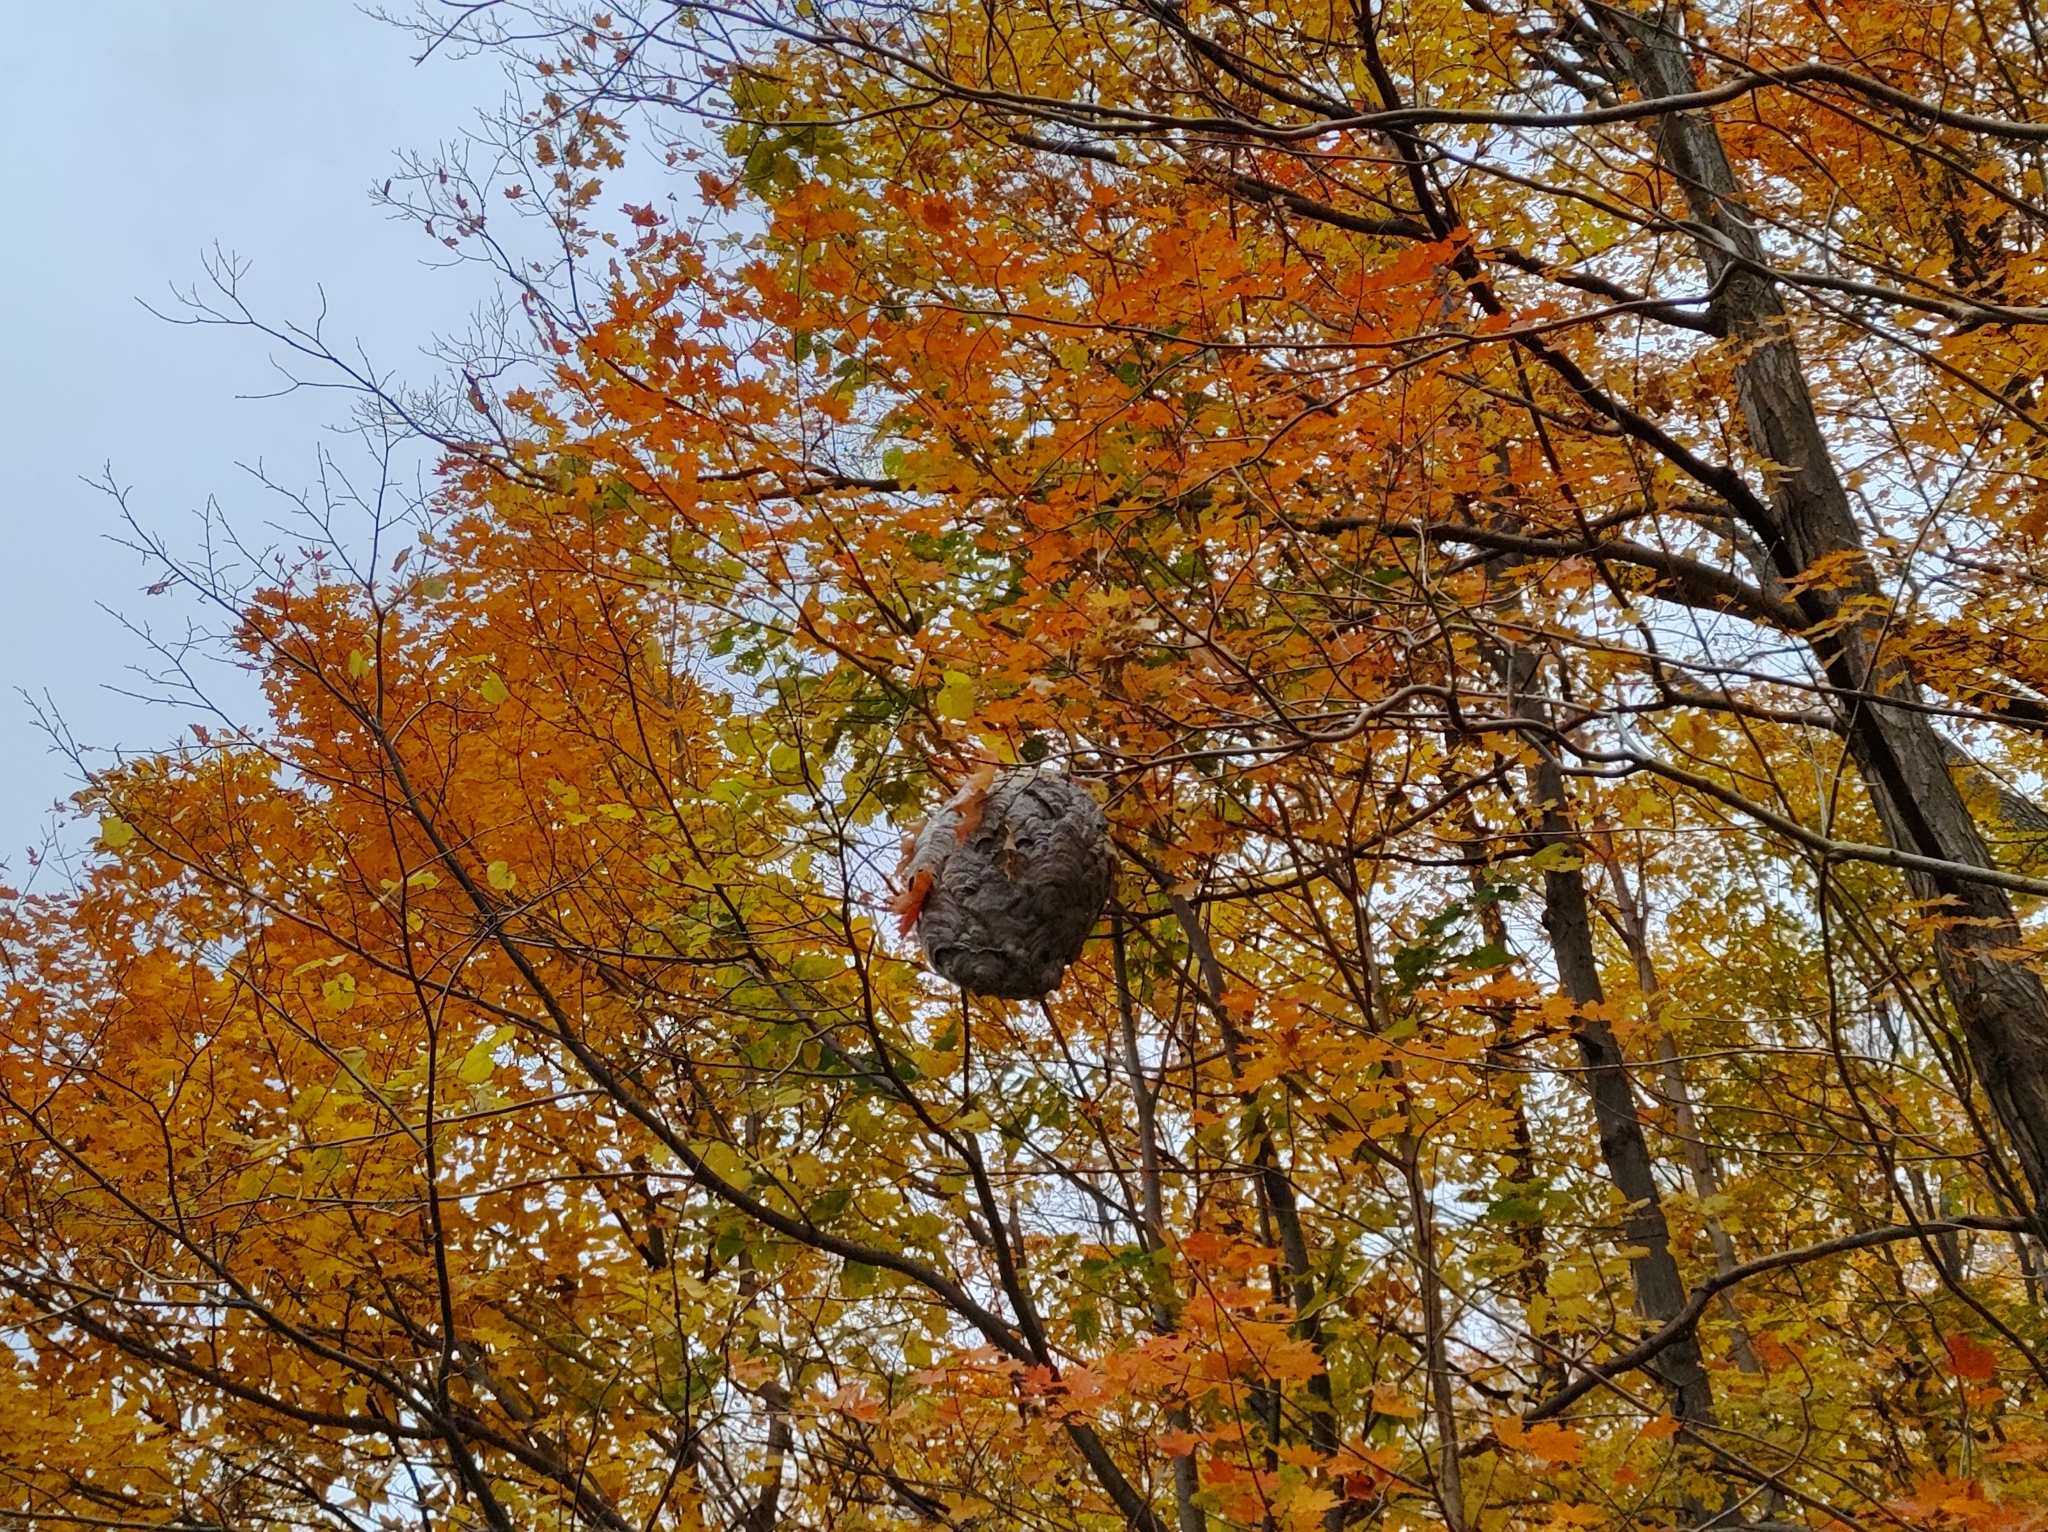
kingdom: Animalia
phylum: Arthropoda
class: Insecta
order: Hymenoptera
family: Vespidae
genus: Dolichovespula
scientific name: Dolichovespula maculata
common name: Bald-faced hornet
